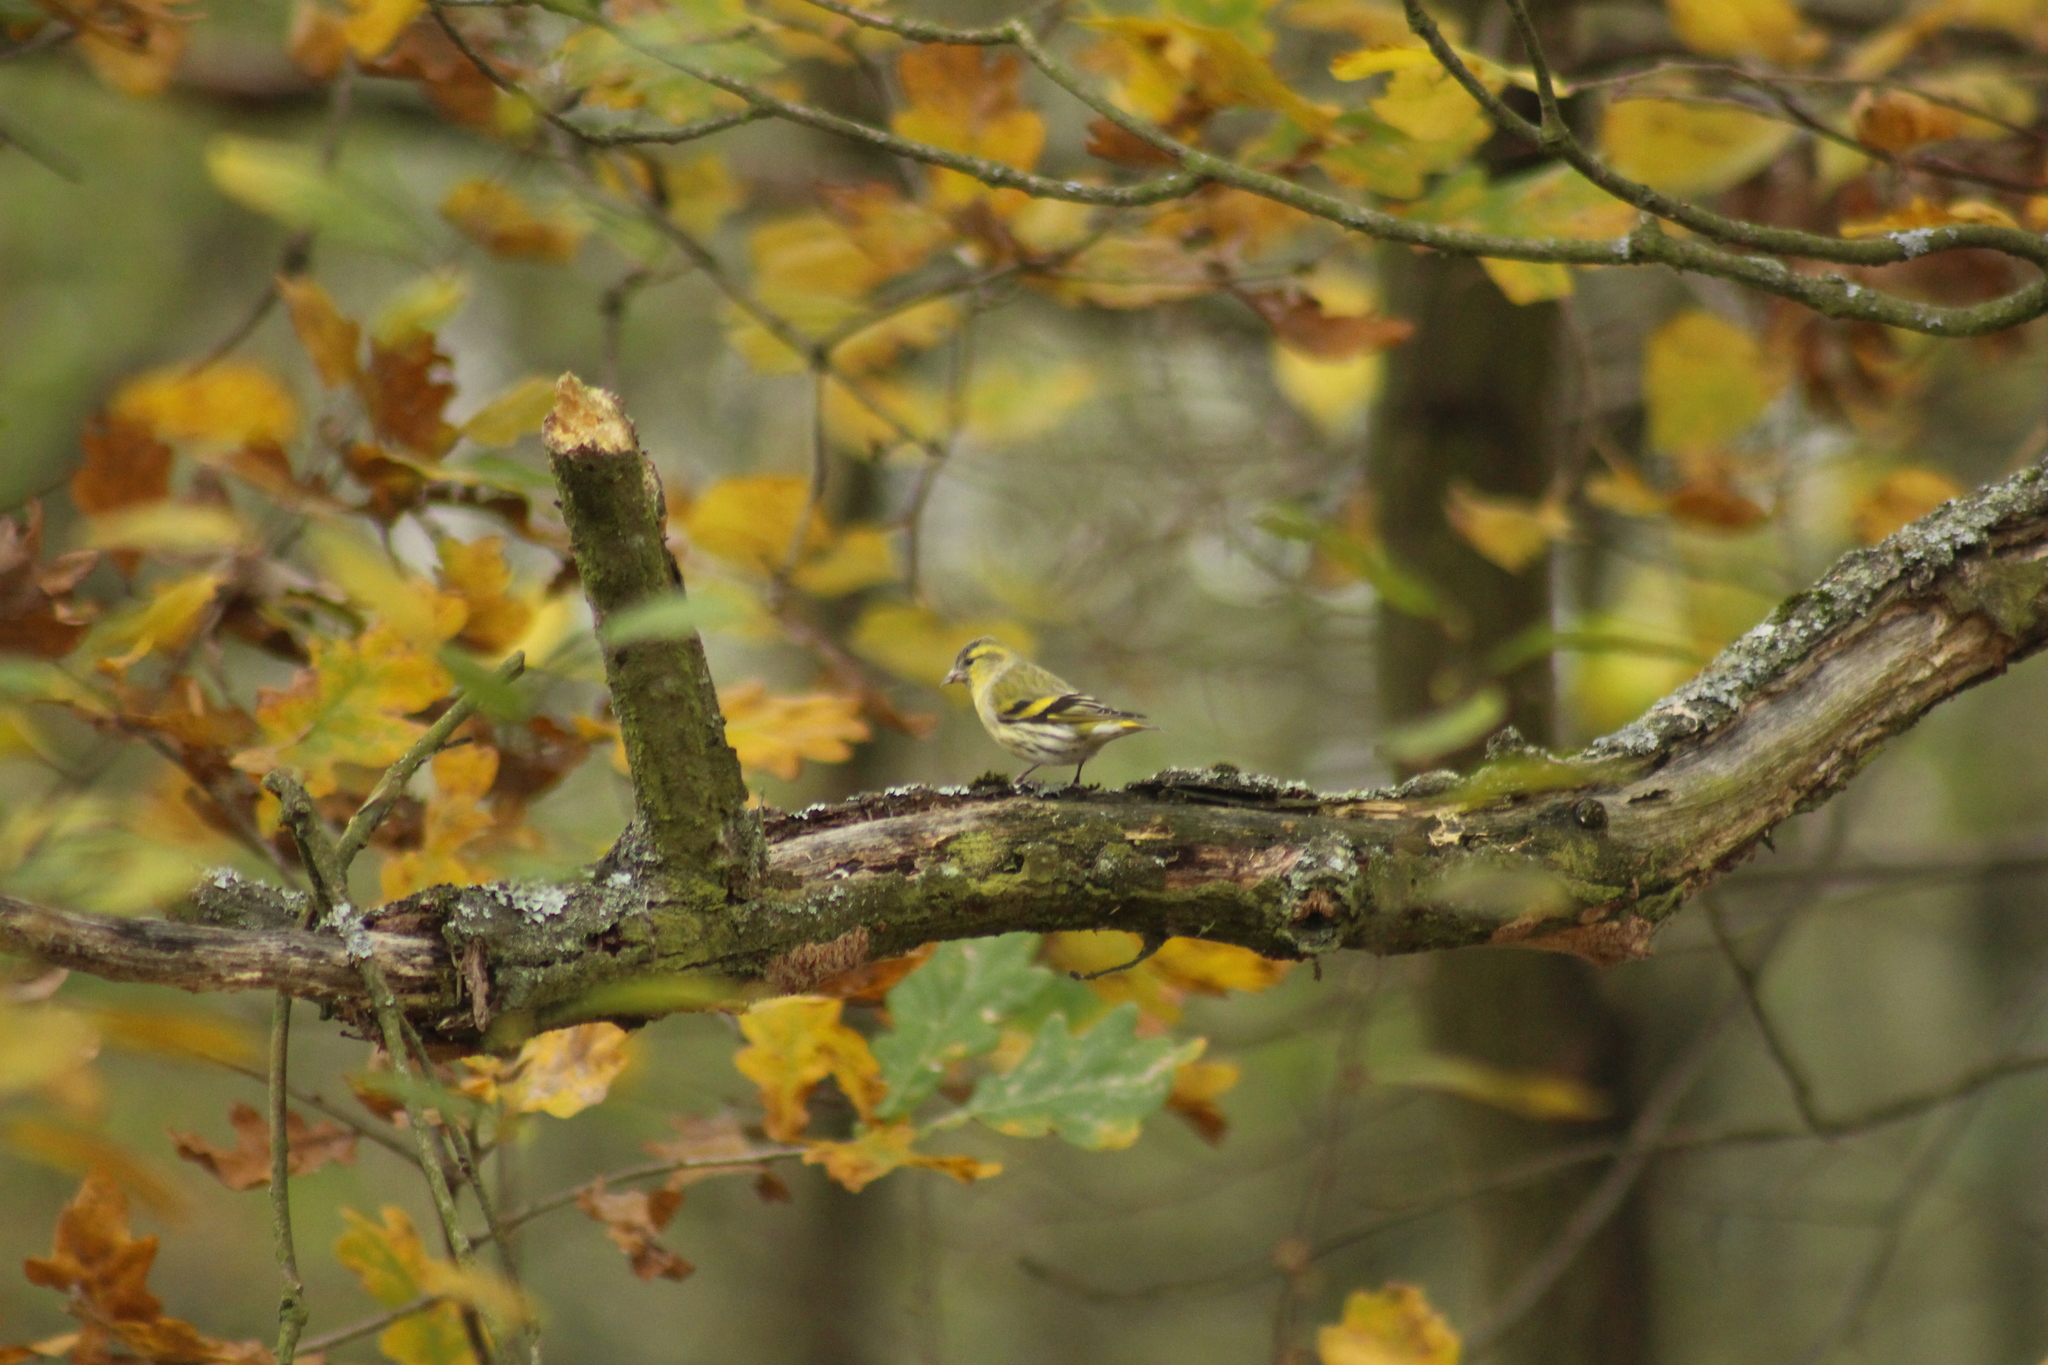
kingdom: Animalia
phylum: Chordata
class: Aves
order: Passeriformes
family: Fringillidae
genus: Spinus
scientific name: Spinus spinus
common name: Eurasian siskin
